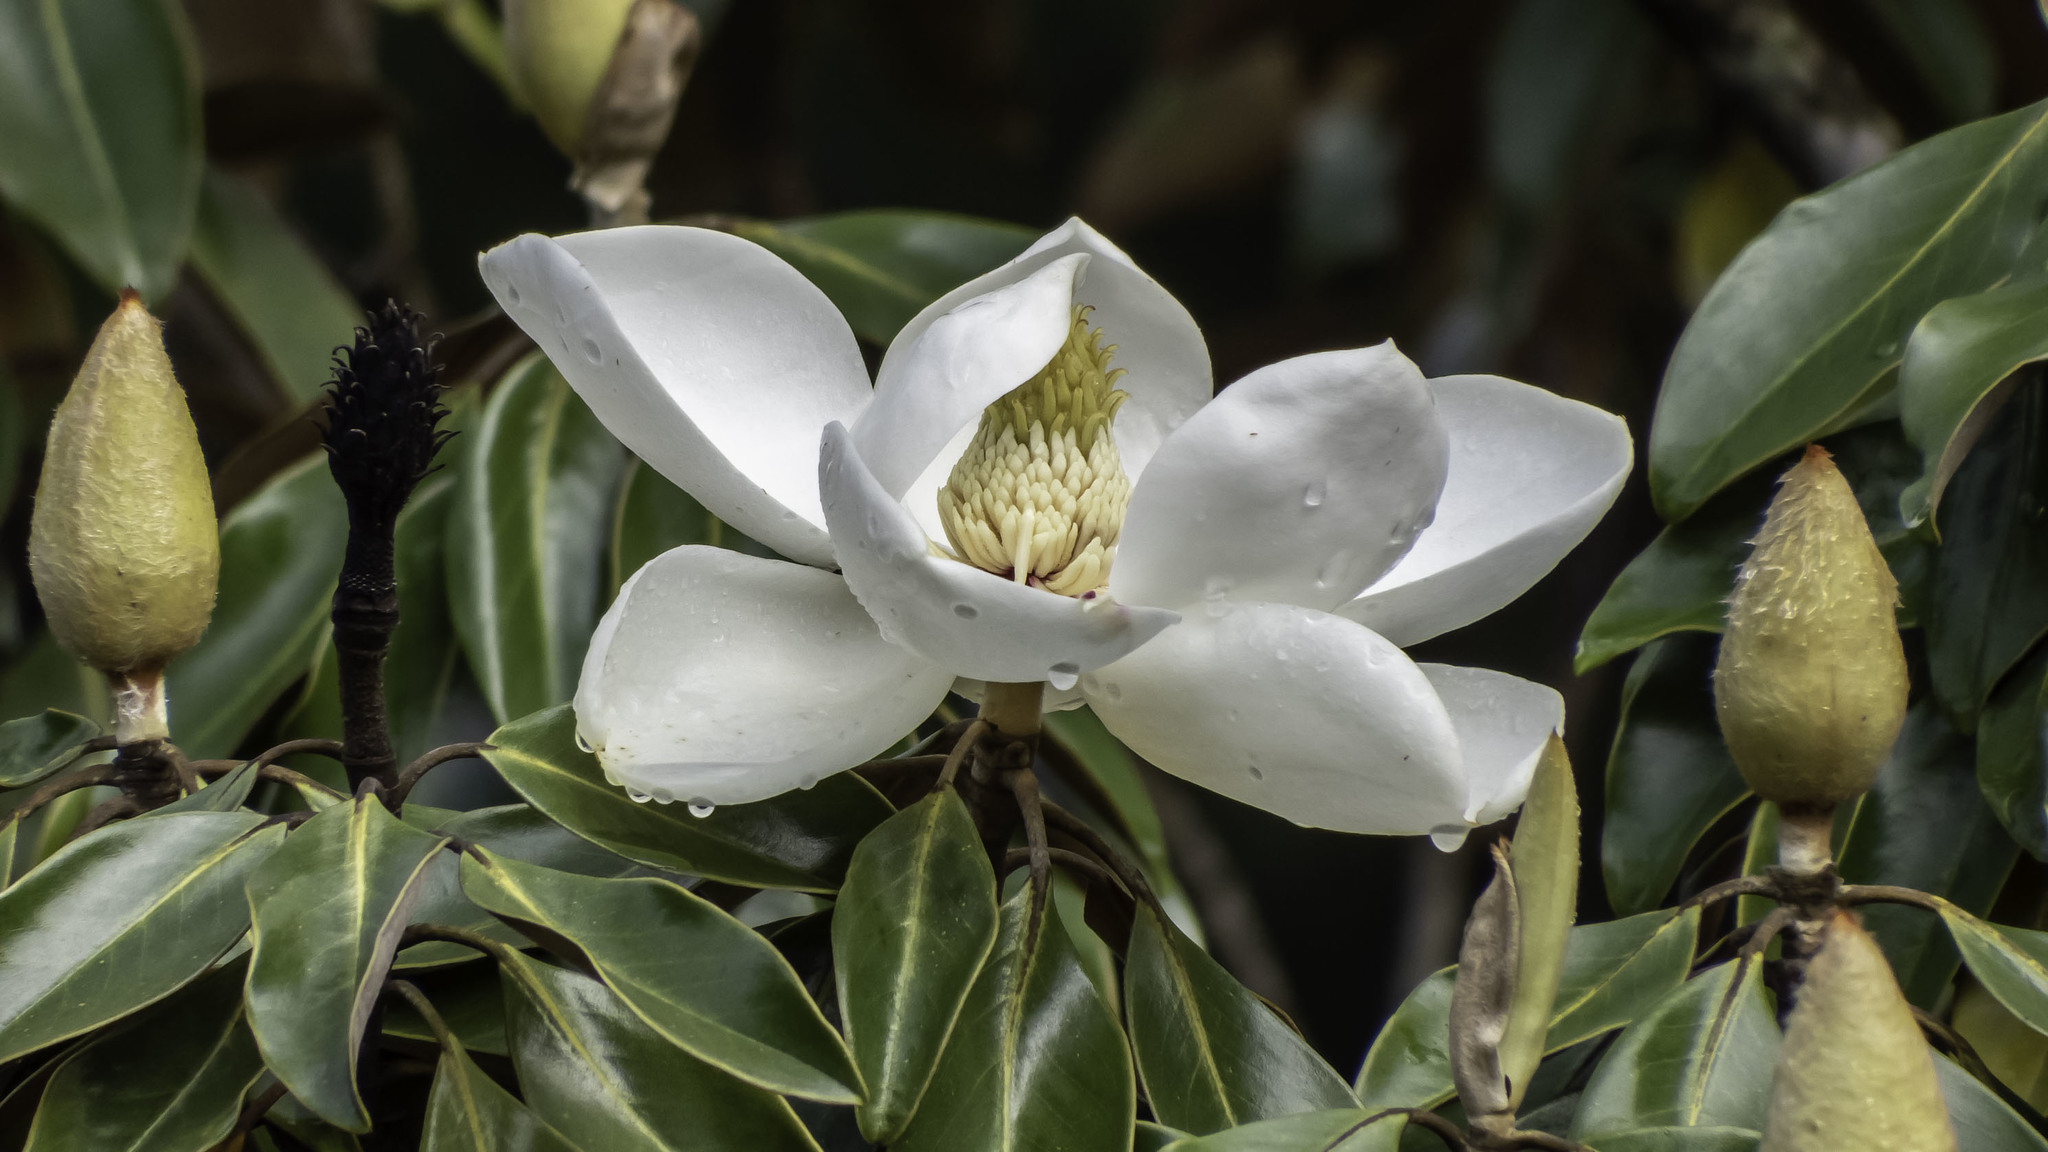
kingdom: Plantae
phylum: Tracheophyta
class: Magnoliopsida
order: Magnoliales
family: Magnoliaceae
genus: Magnolia
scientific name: Magnolia grandiflora
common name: Southern magnolia
